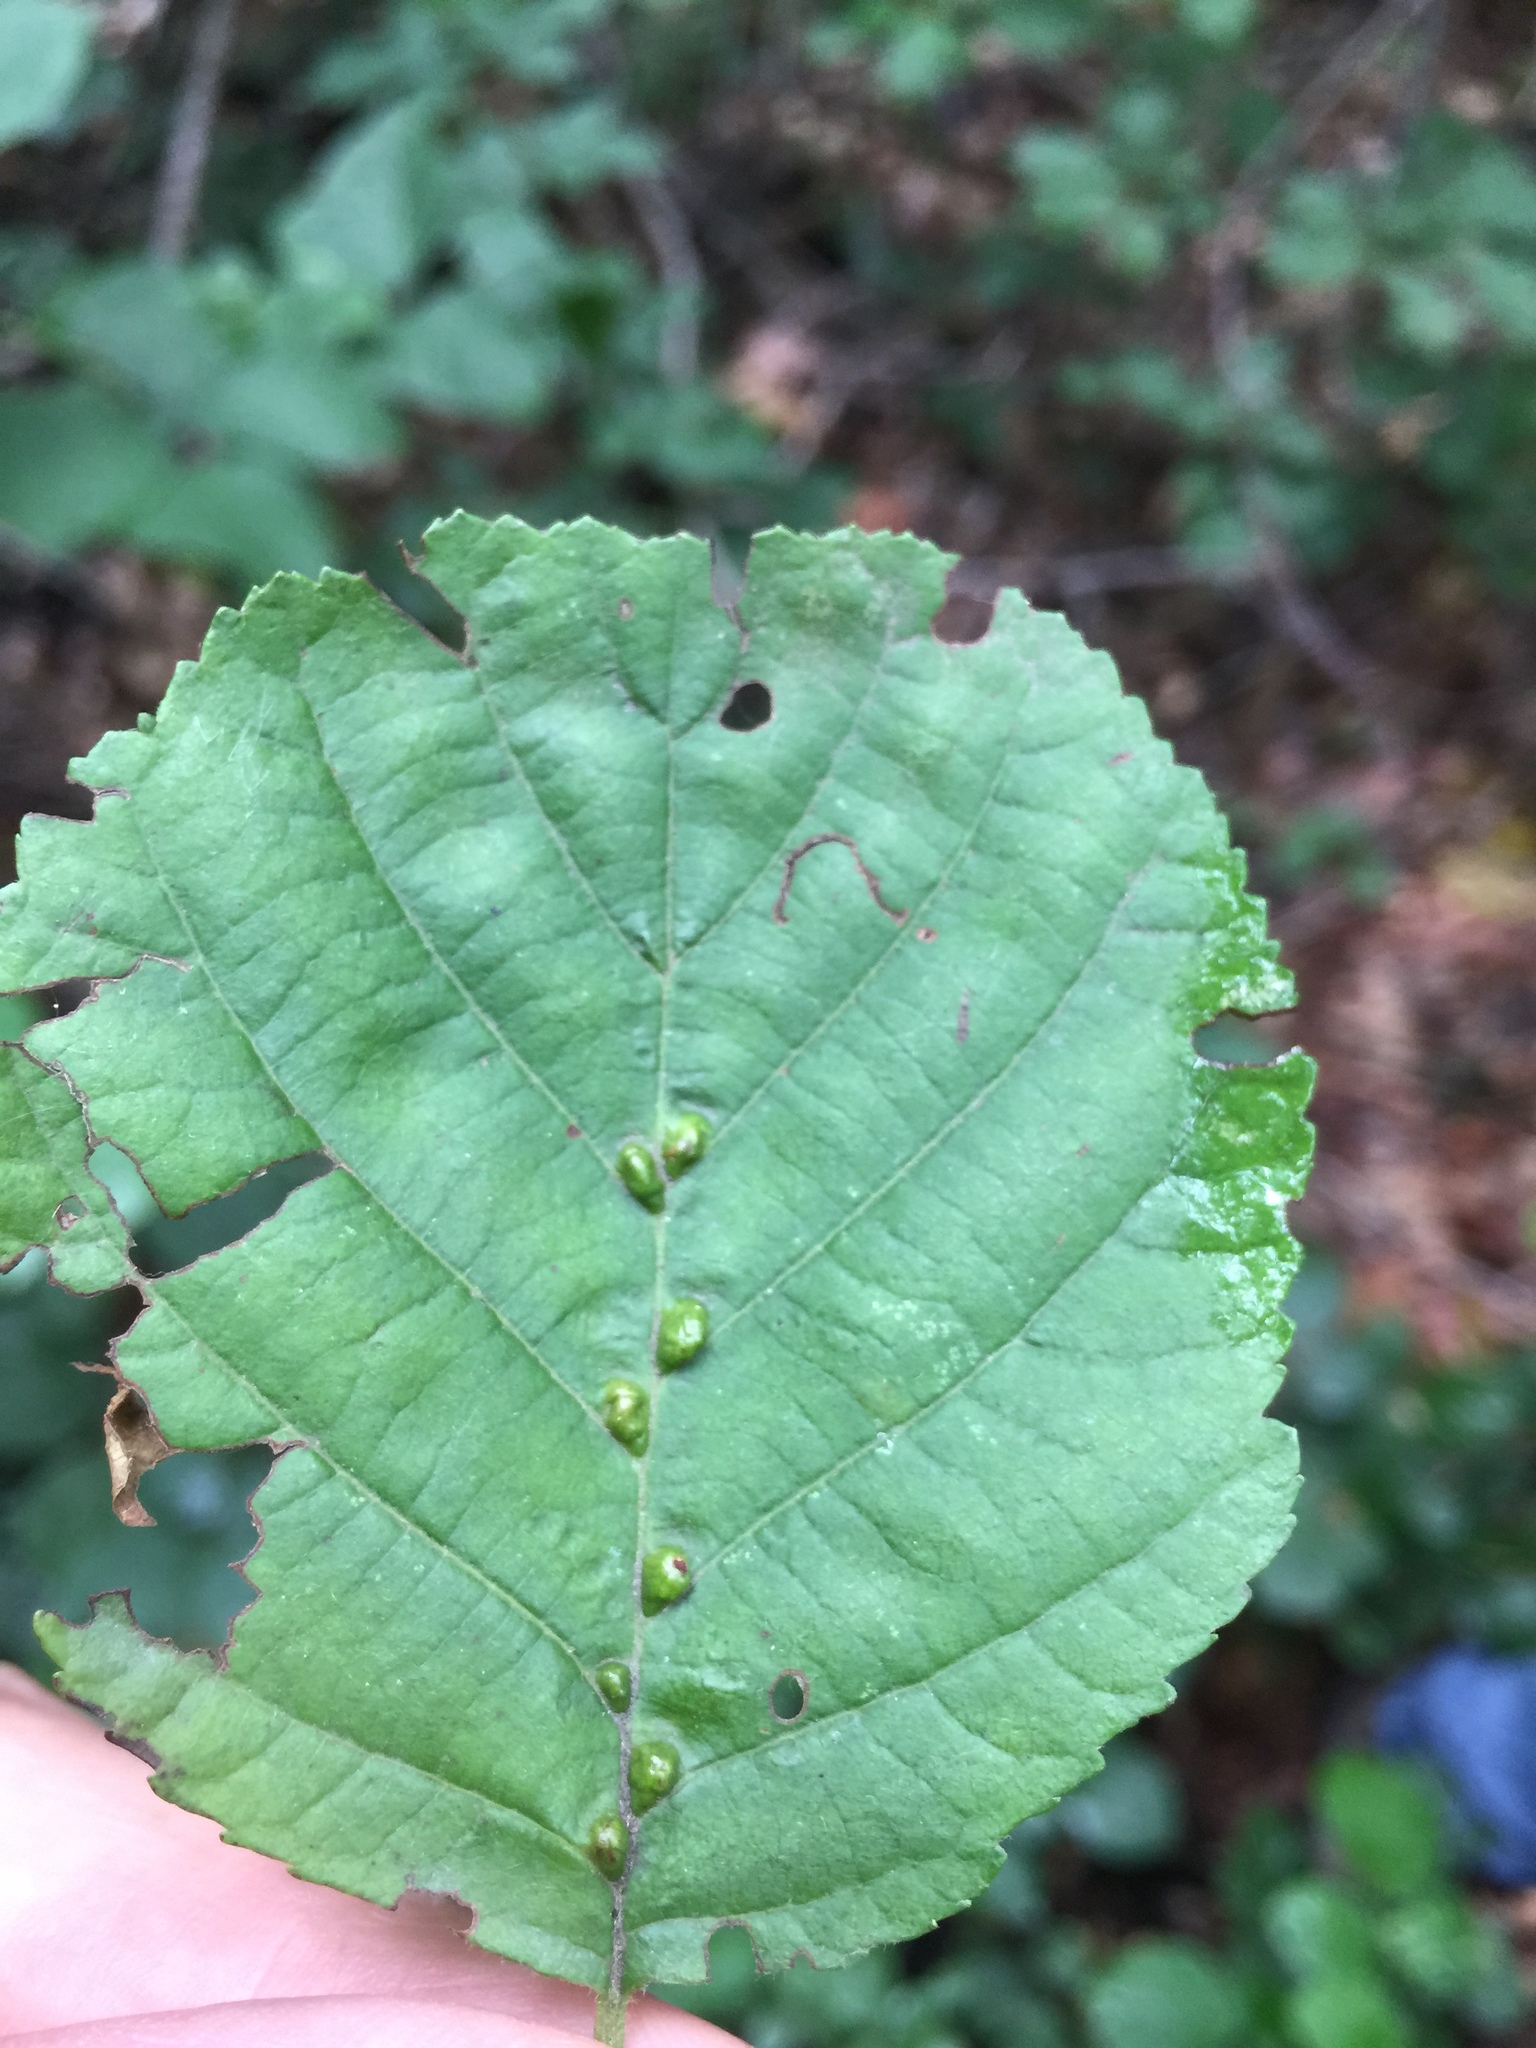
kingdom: Animalia
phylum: Arthropoda
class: Arachnida
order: Trombidiformes
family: Eriophyidae
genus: Eriophyes
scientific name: Eriophyes inangulis
